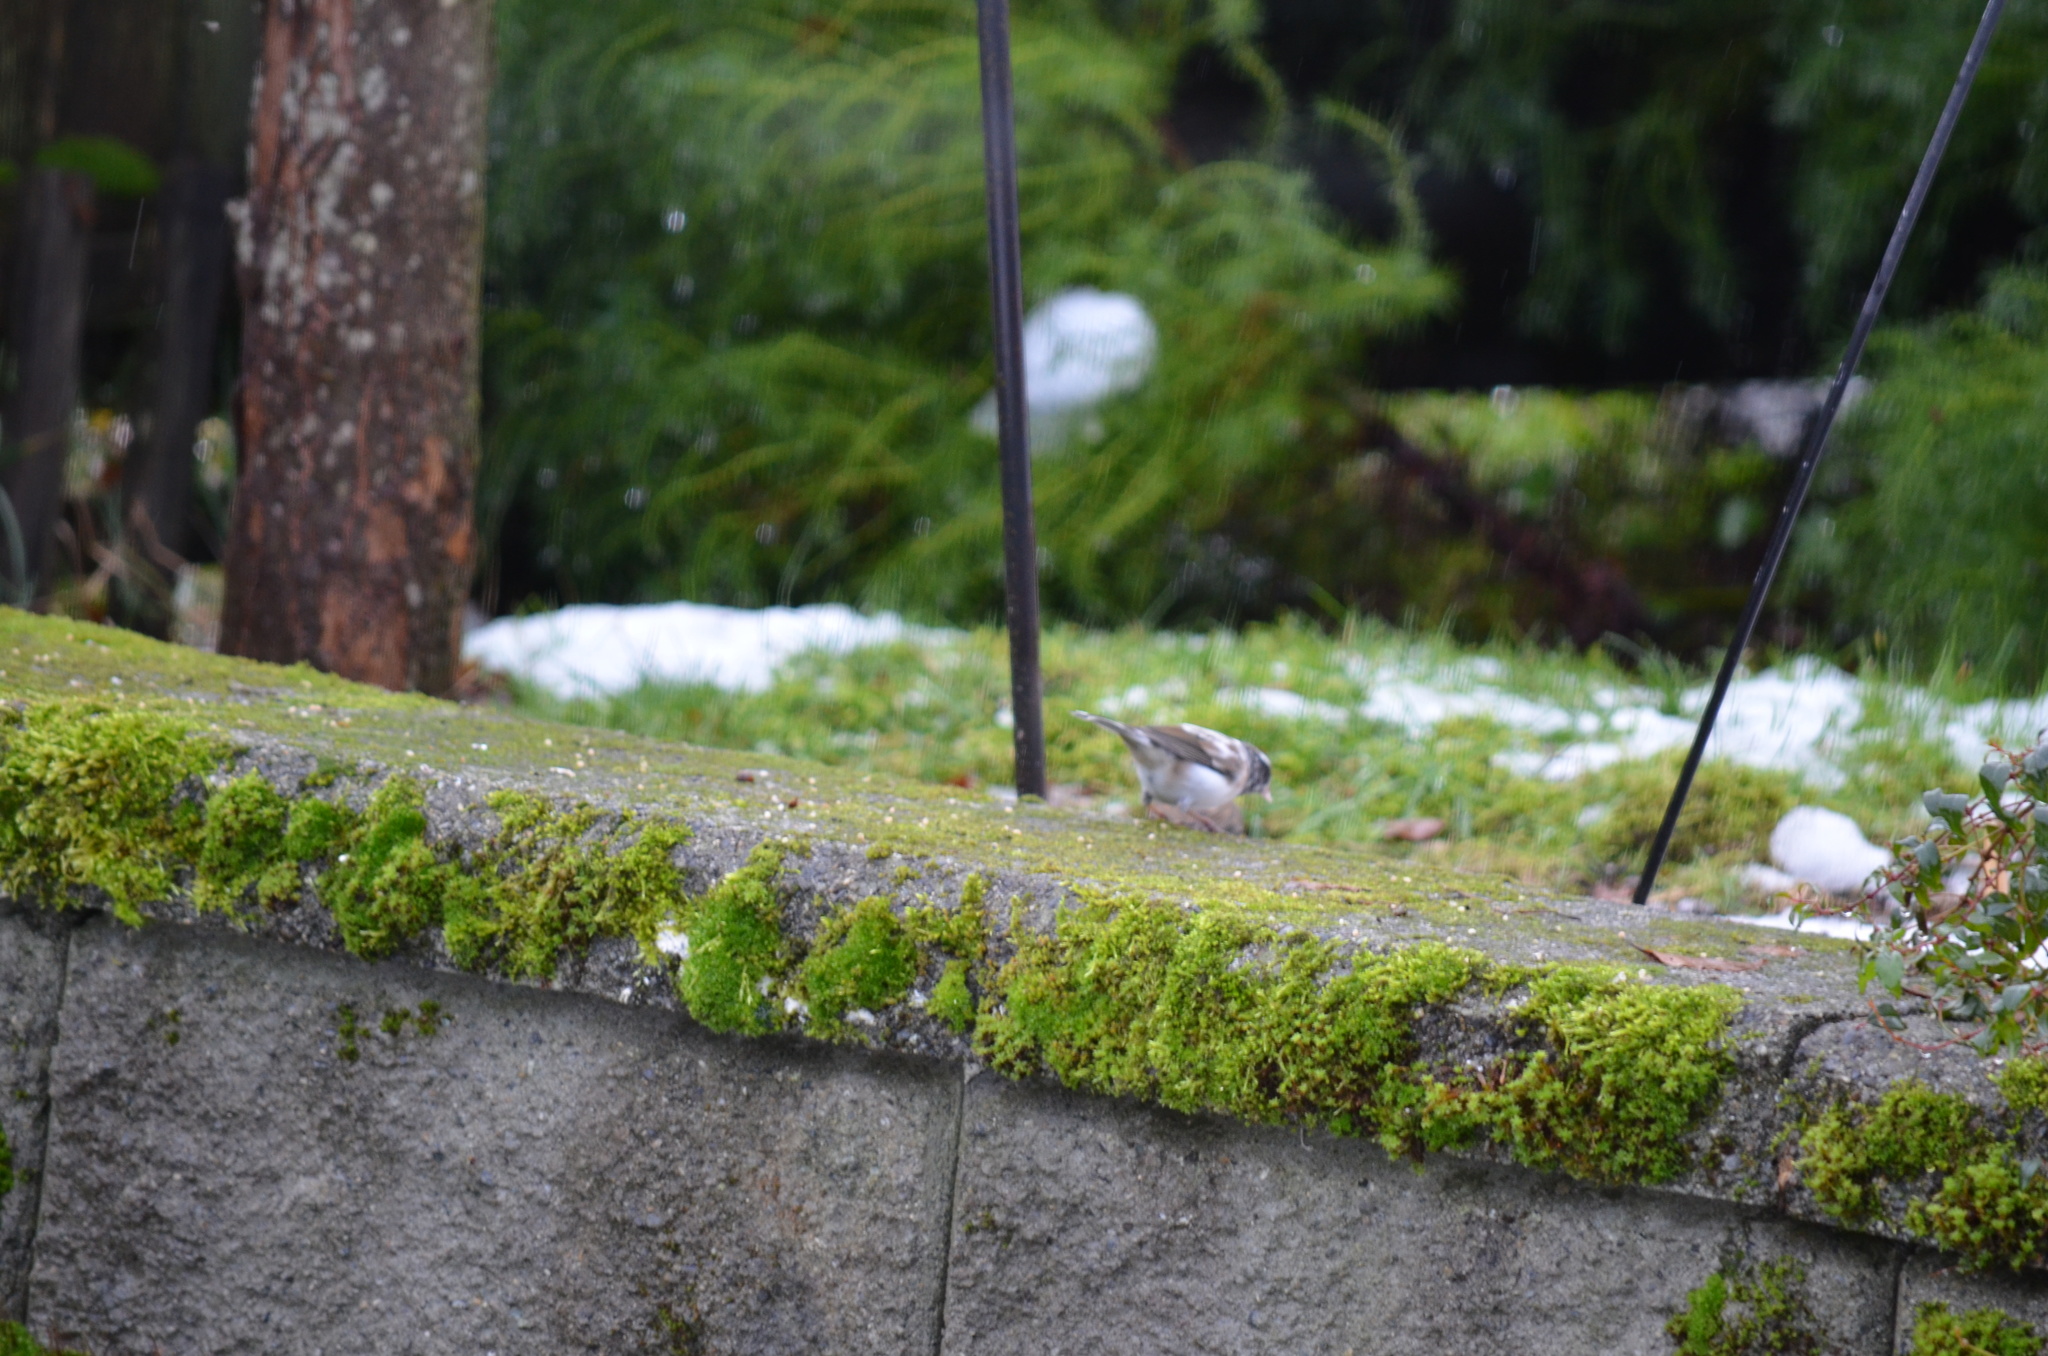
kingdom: Animalia
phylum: Chordata
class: Aves
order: Passeriformes
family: Passerellidae
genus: Junco
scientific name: Junco hyemalis
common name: Dark-eyed junco
